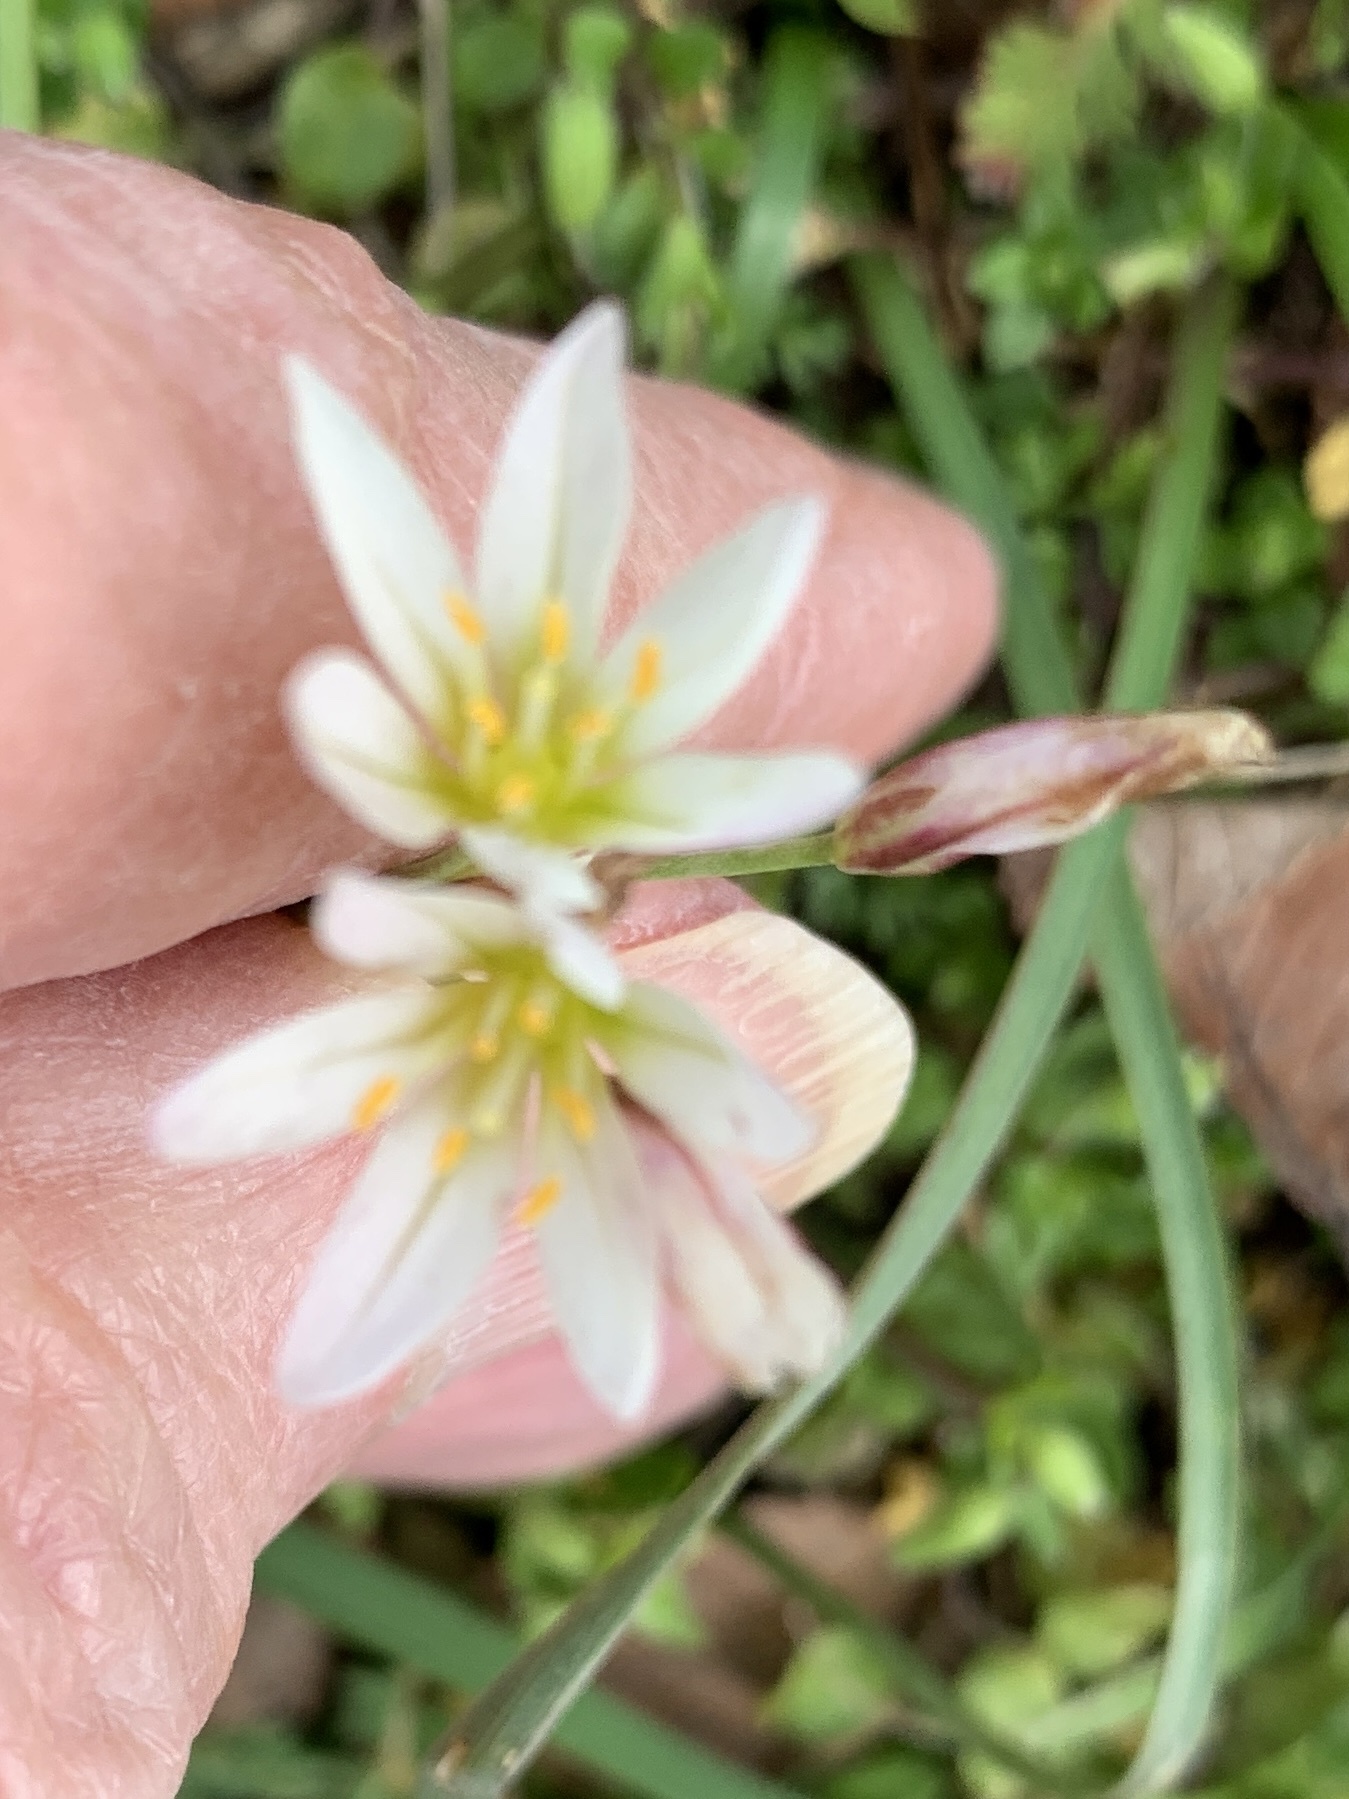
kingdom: Plantae
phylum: Tracheophyta
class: Liliopsida
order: Asparagales
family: Amaryllidaceae
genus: Nothoscordum
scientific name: Nothoscordum bivalve
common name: Crow-poison
